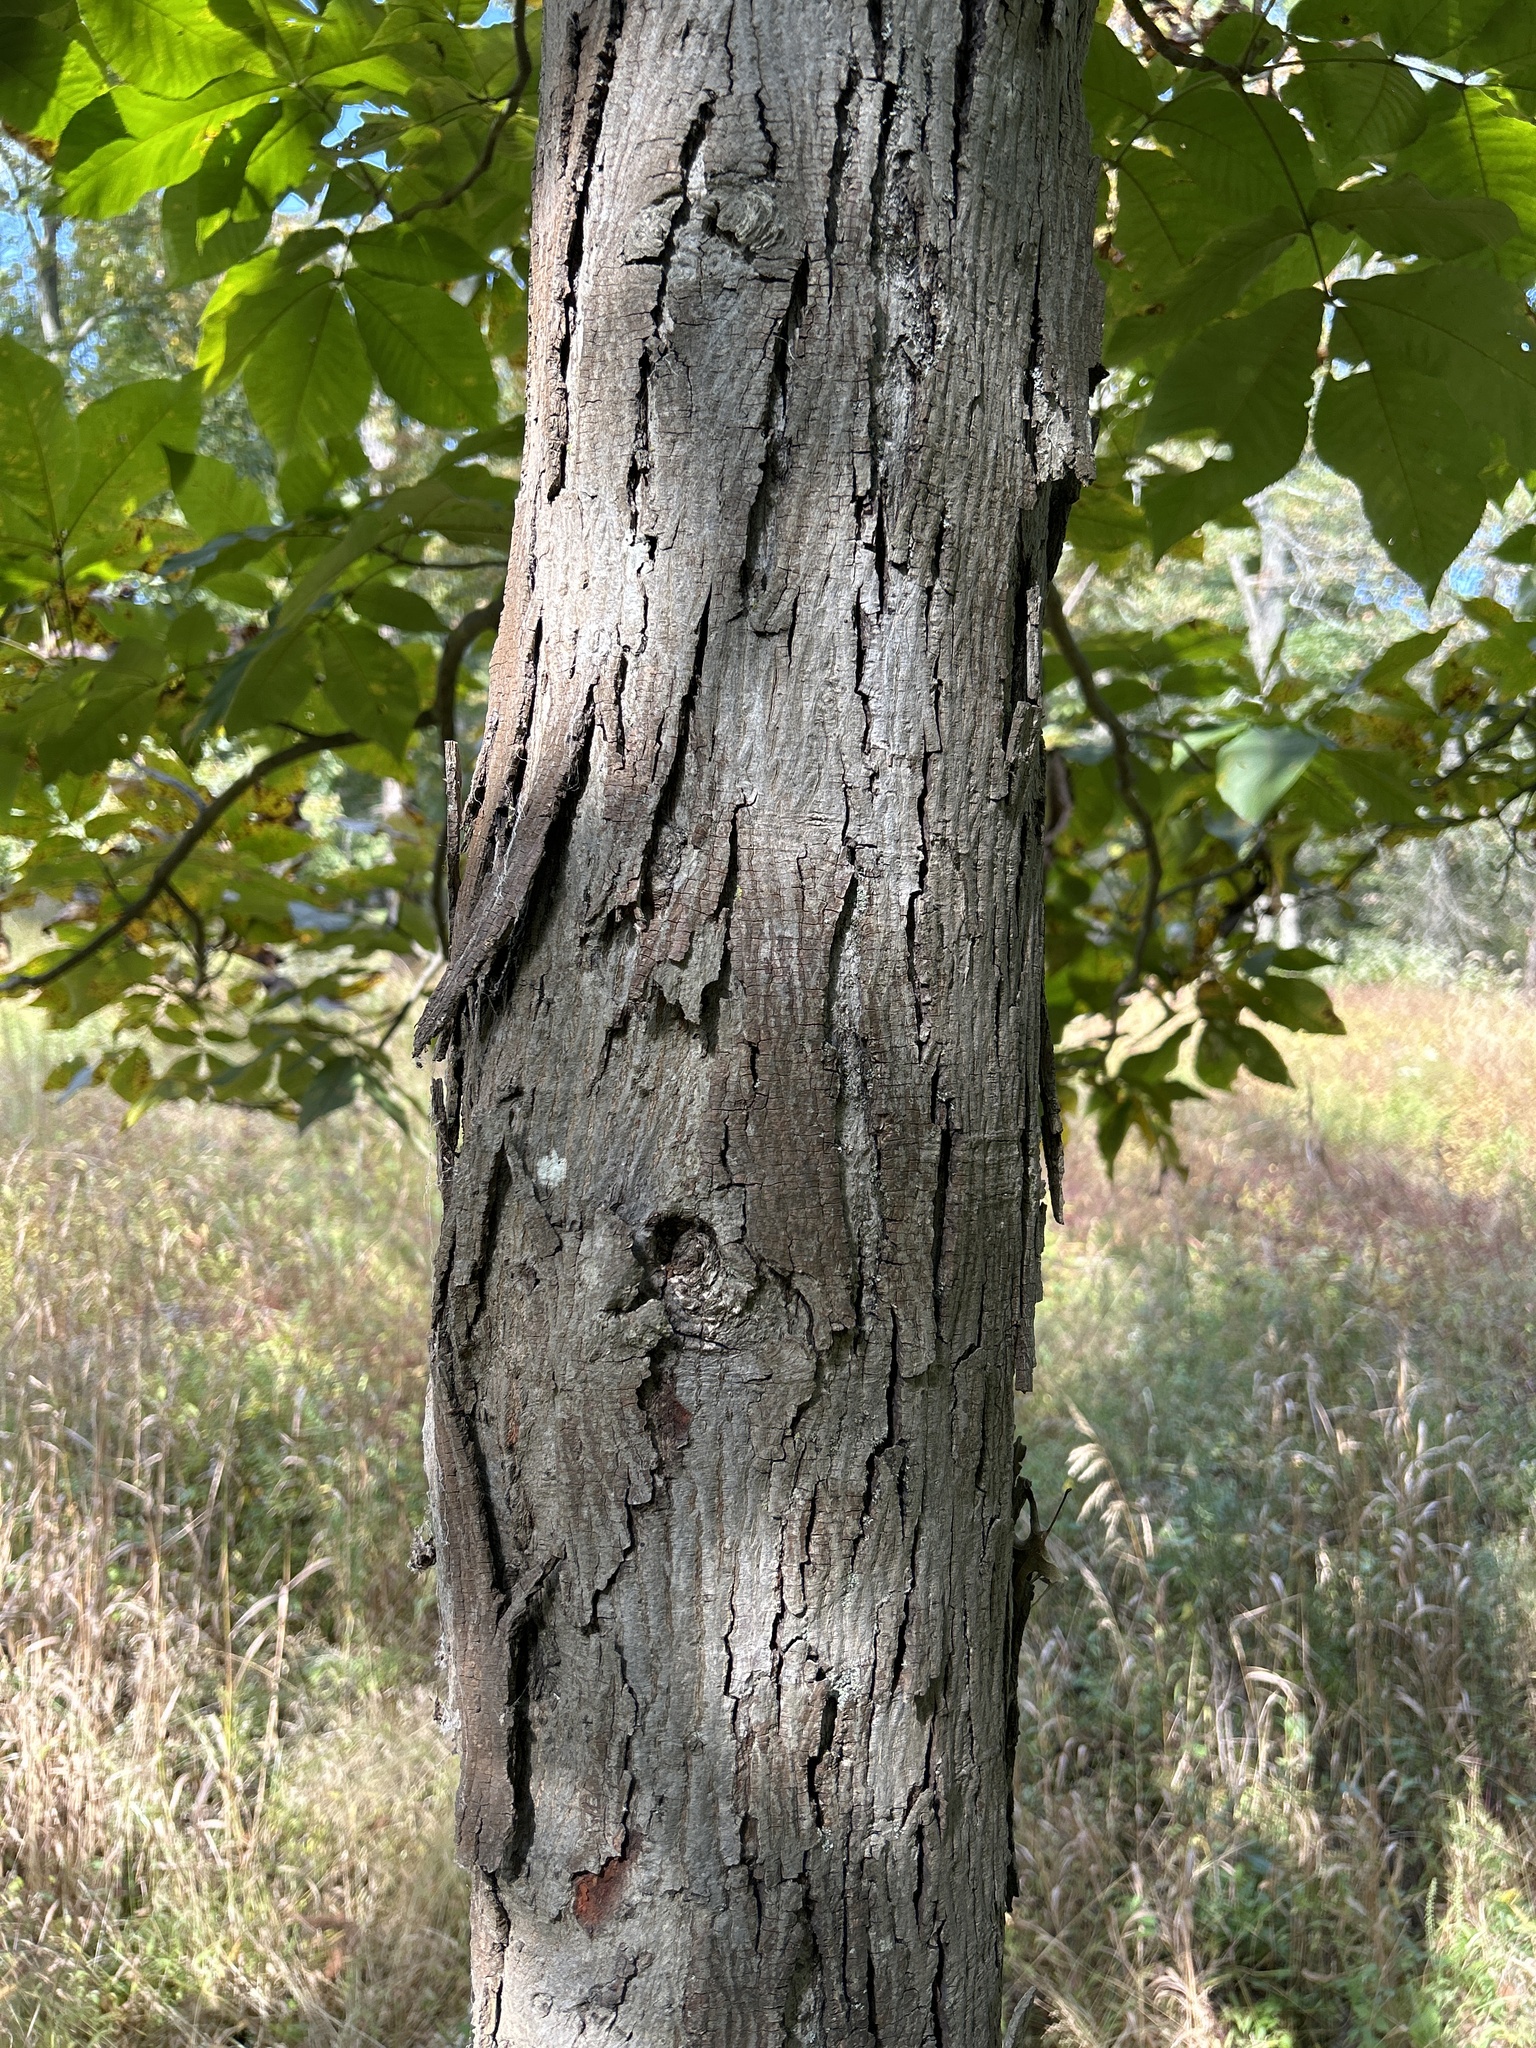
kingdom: Plantae
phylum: Tracheophyta
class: Magnoliopsida
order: Fagales
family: Juglandaceae
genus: Carya
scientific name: Carya ovata
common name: Shagbark hickory
